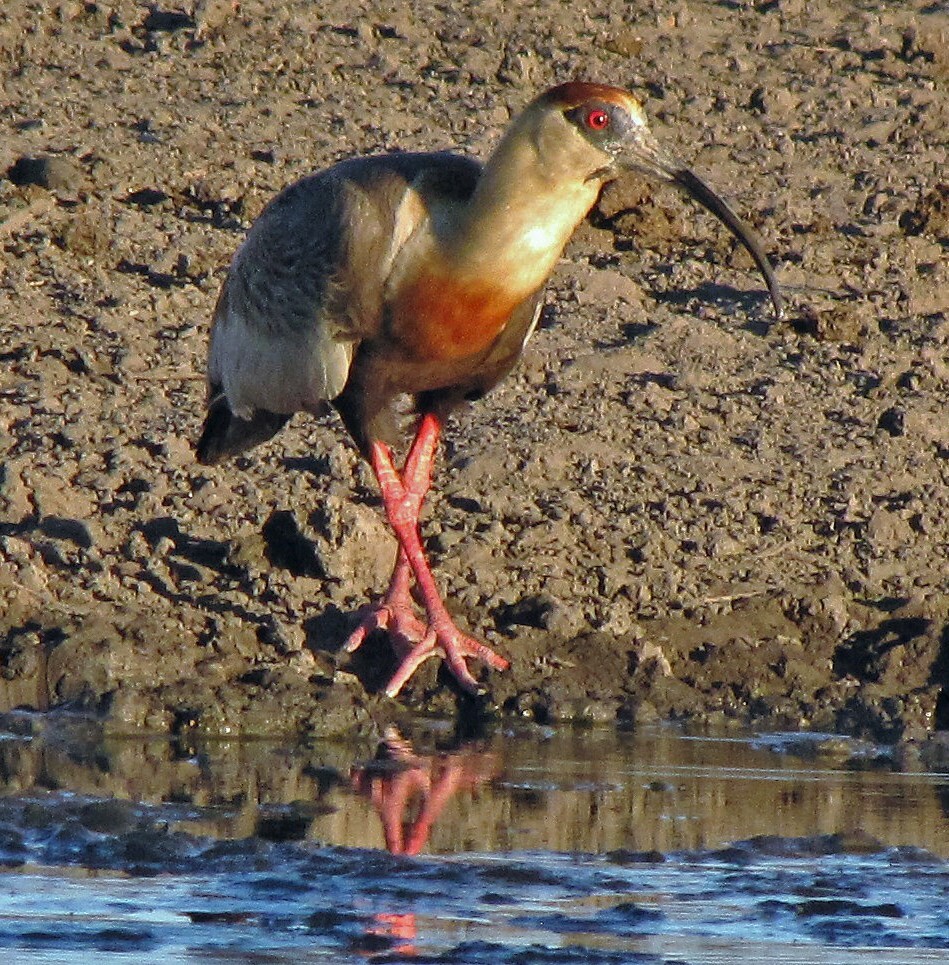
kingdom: Animalia
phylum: Chordata
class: Aves
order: Pelecaniformes
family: Threskiornithidae
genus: Theristicus
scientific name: Theristicus caudatus
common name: Buff-necked ibis
